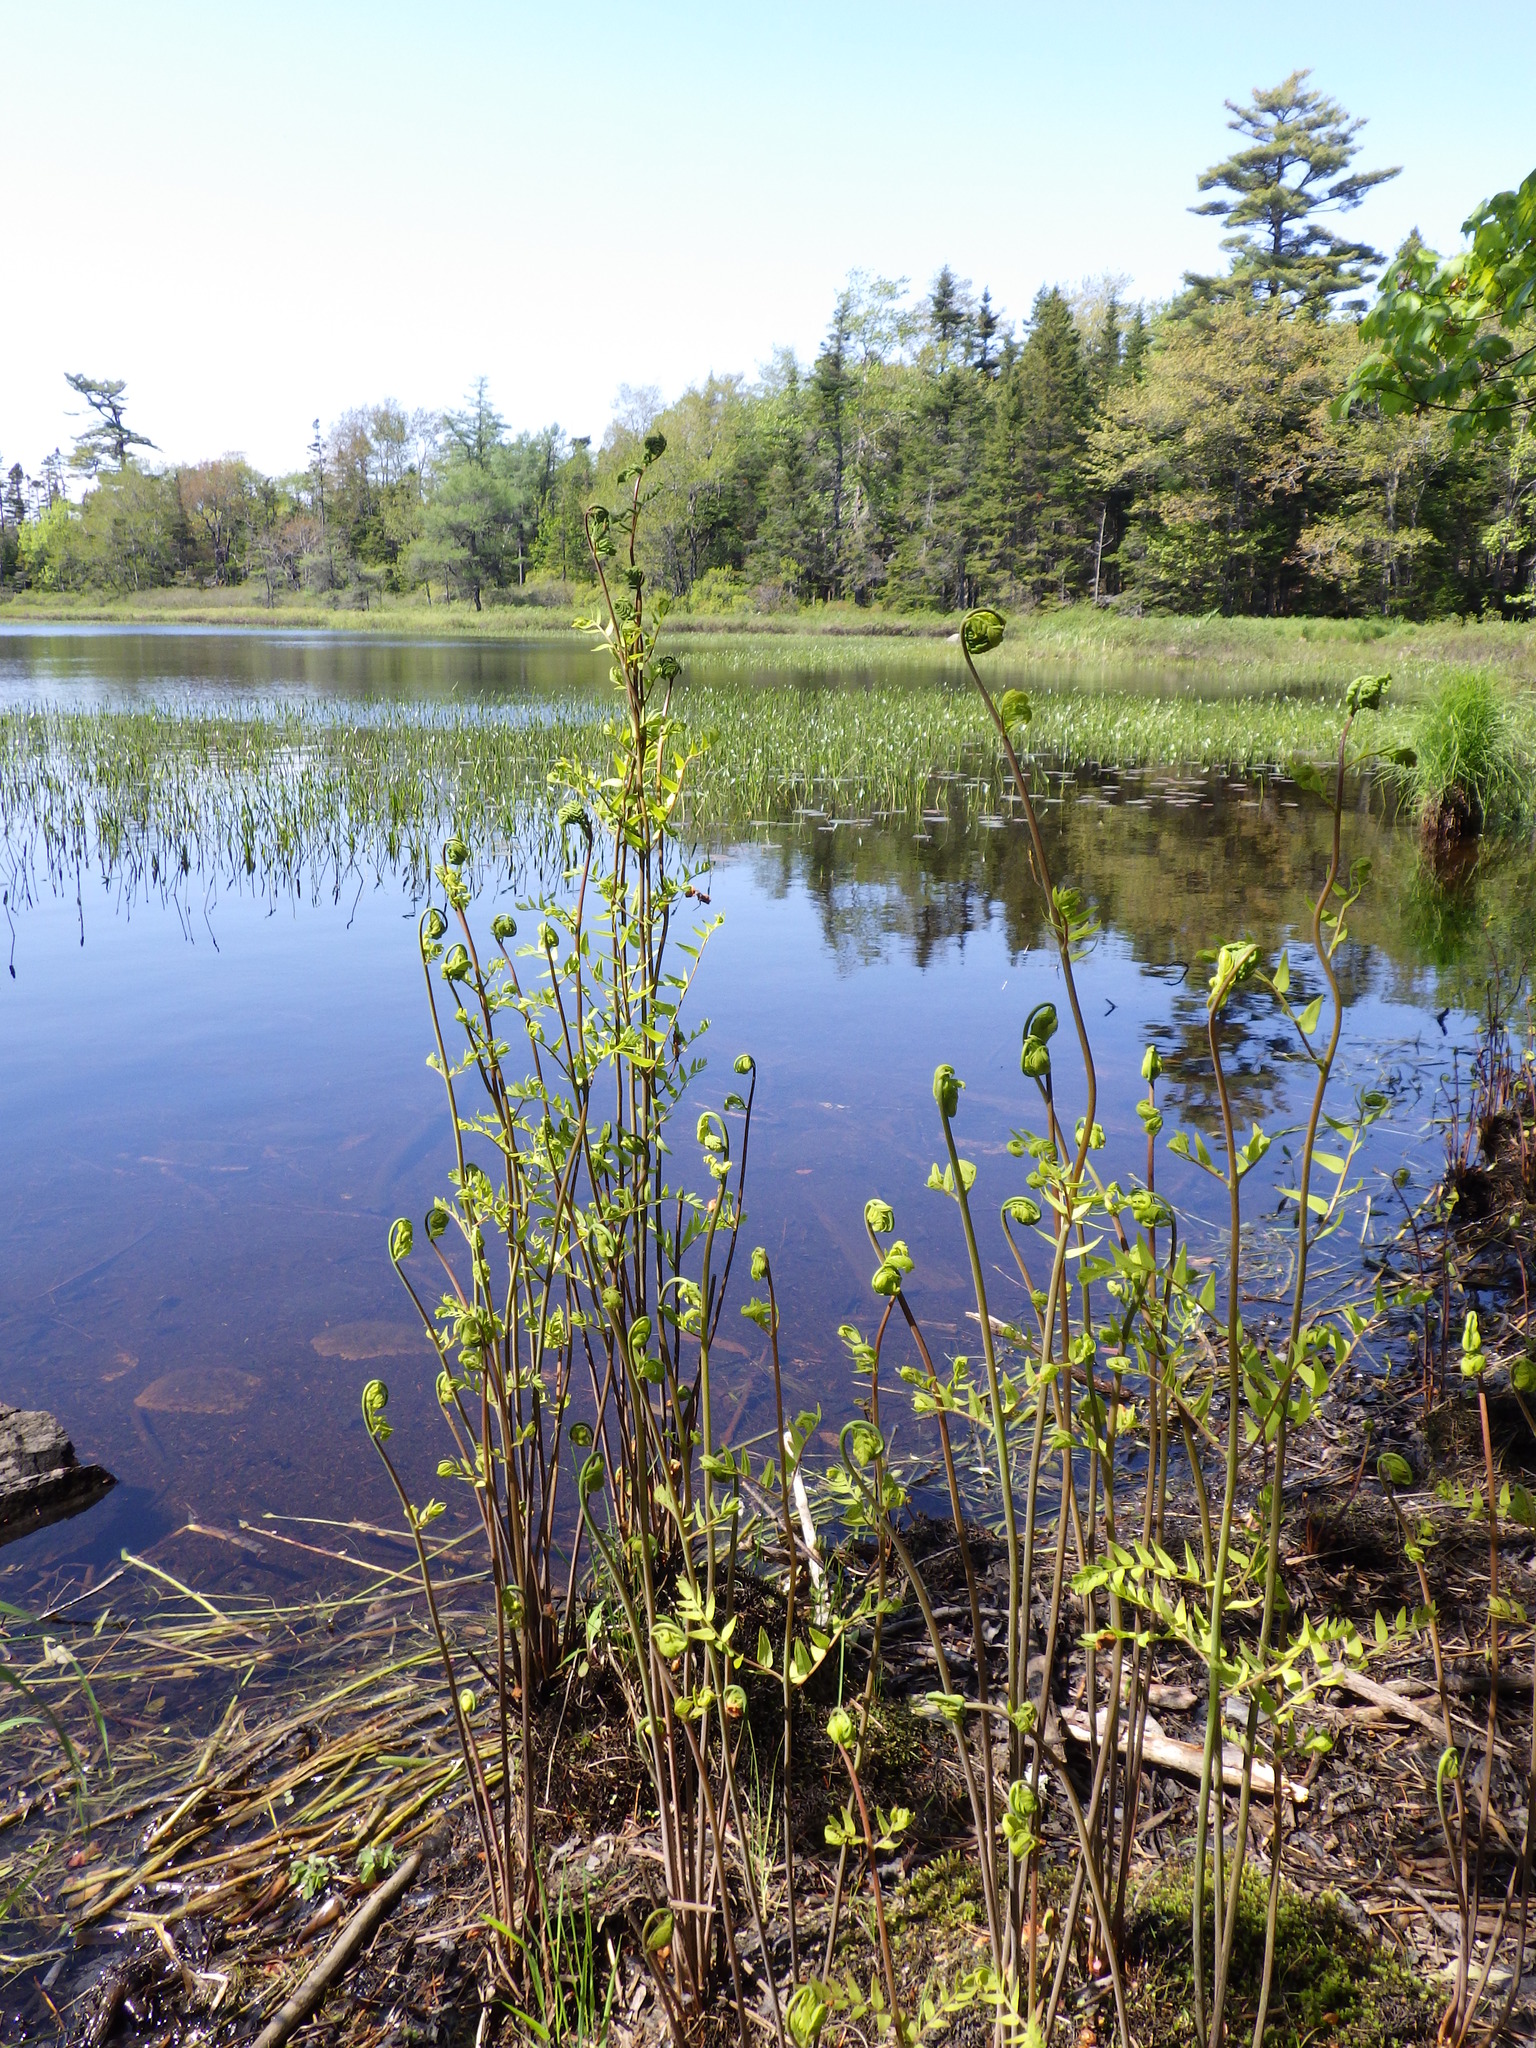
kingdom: Plantae
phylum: Tracheophyta
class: Polypodiopsida
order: Osmundales
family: Osmundaceae
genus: Osmunda
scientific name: Osmunda spectabilis
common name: American royal fern
